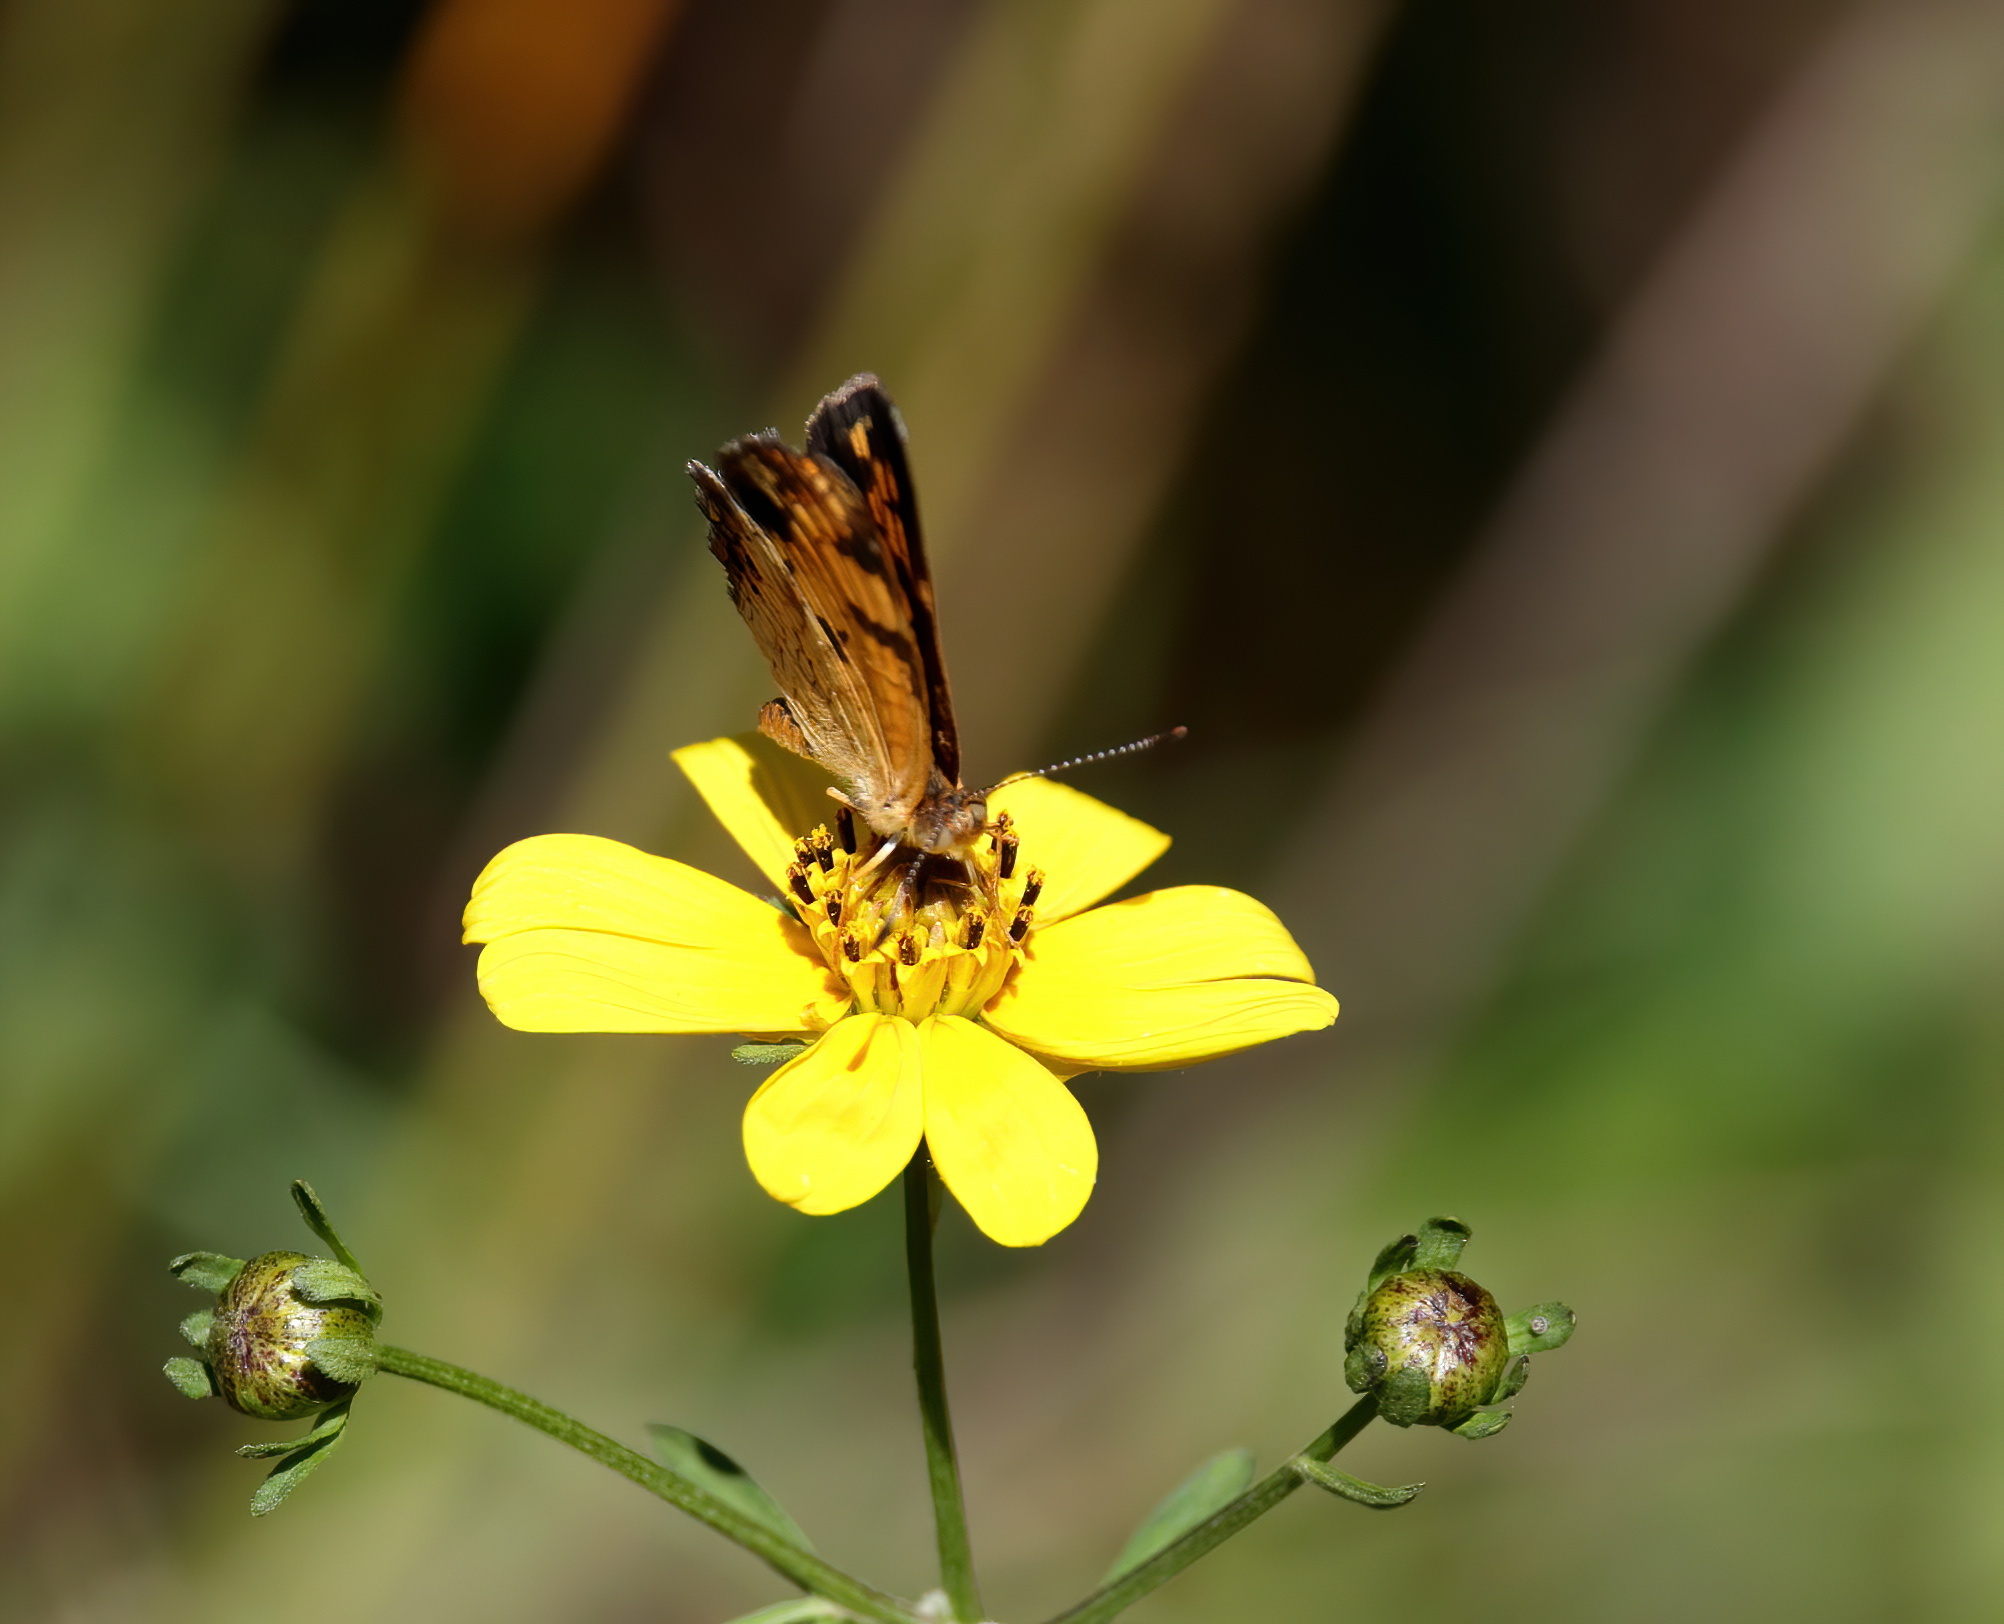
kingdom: Animalia
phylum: Arthropoda
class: Insecta
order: Lepidoptera
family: Nymphalidae
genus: Phyciodes
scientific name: Phyciodes tharos
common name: Pearl crescent
